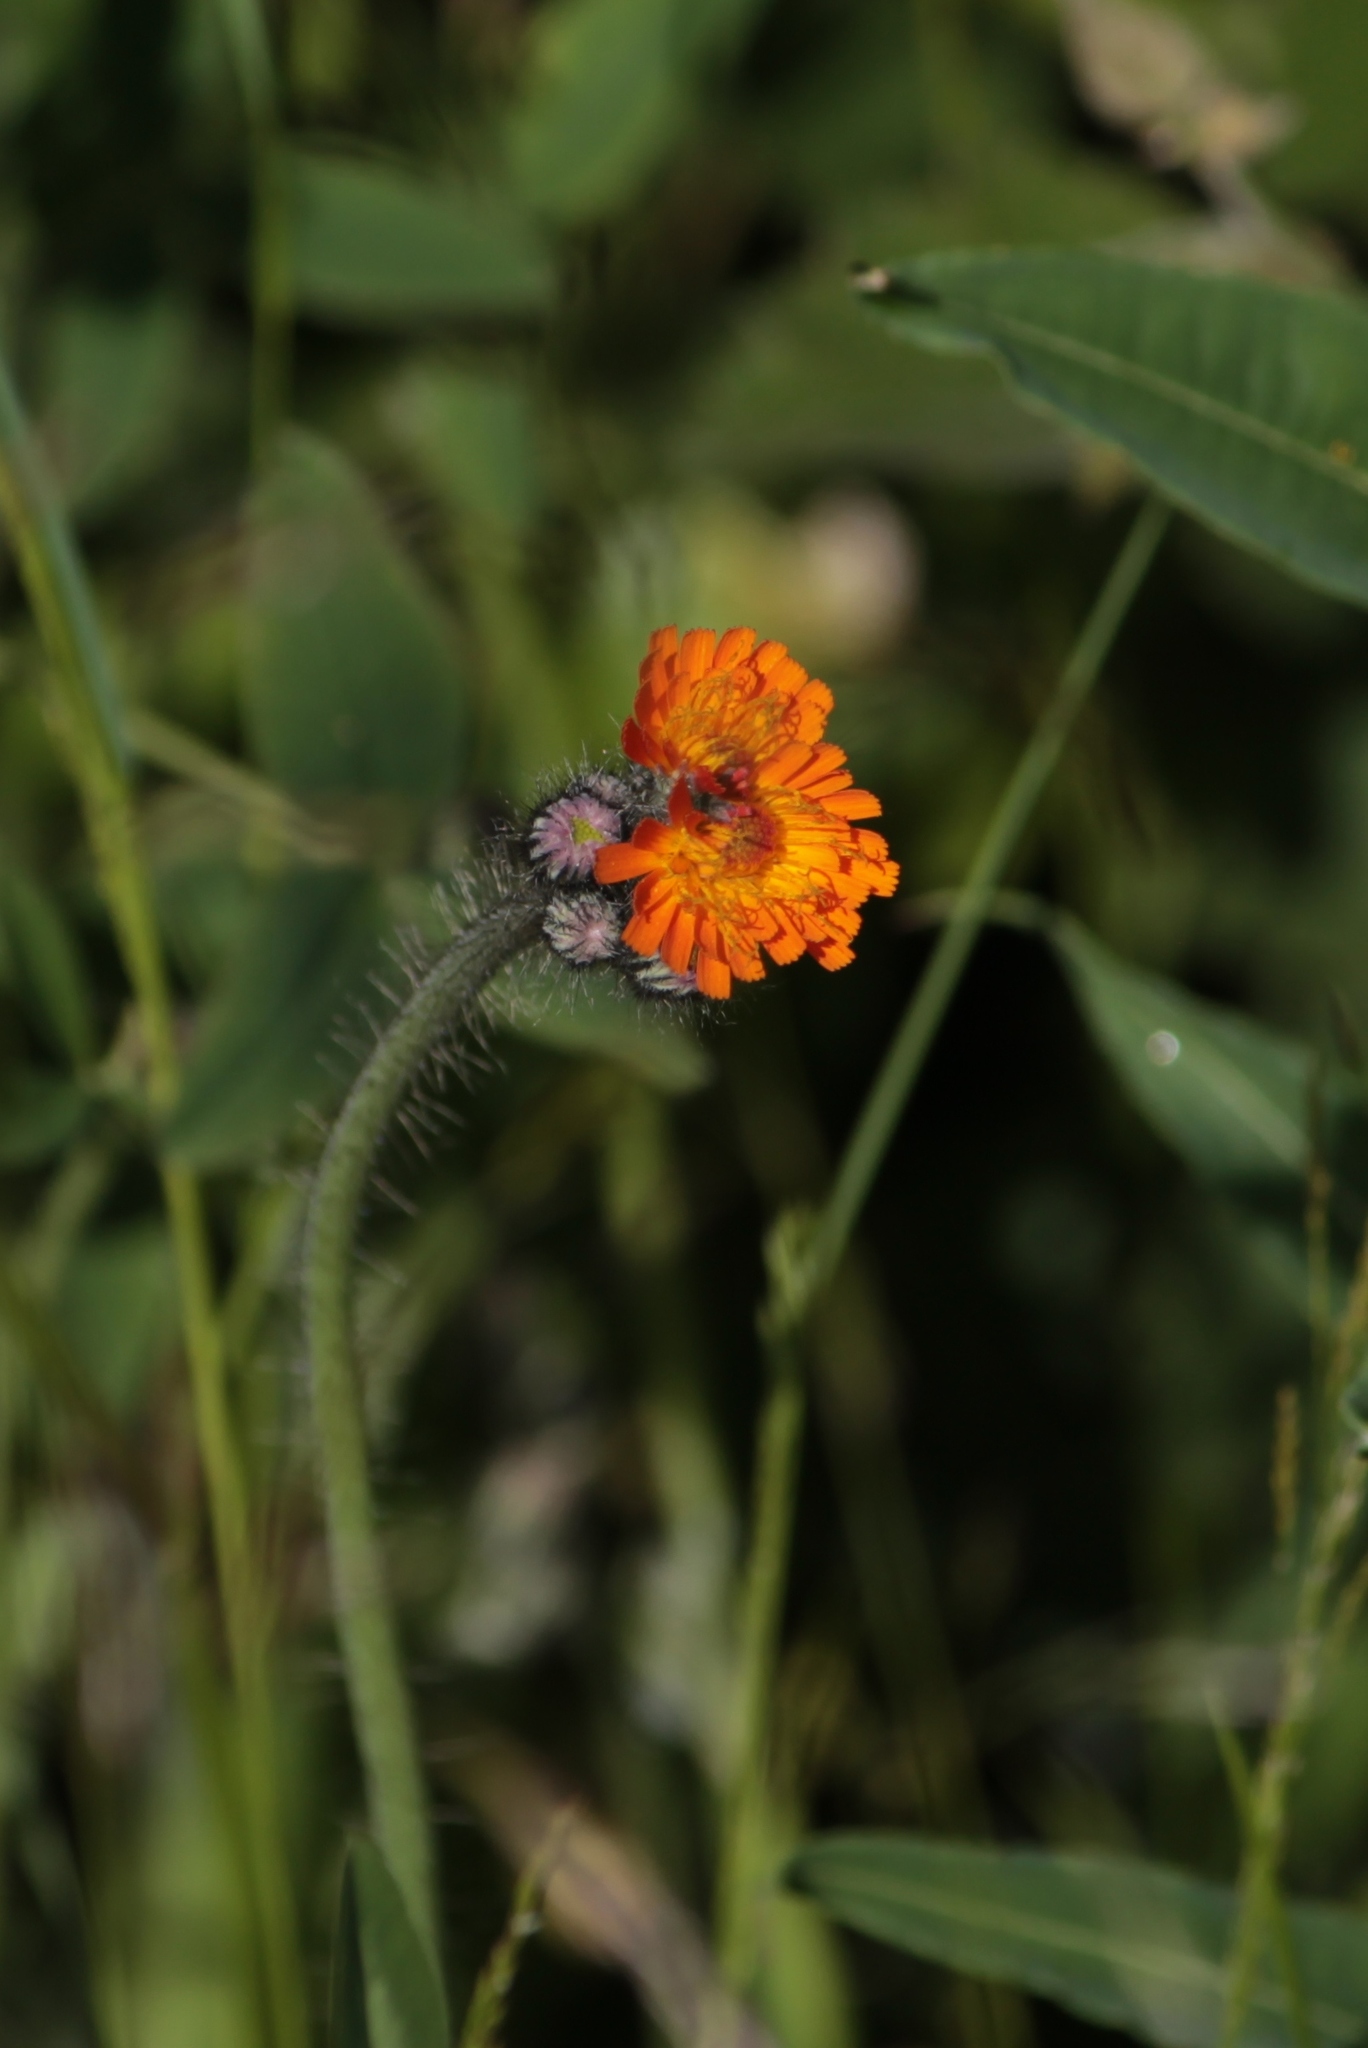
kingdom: Plantae
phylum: Tracheophyta
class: Magnoliopsida
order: Asterales
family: Asteraceae
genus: Pilosella
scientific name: Pilosella aurantiaca
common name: Fox-and-cubs
